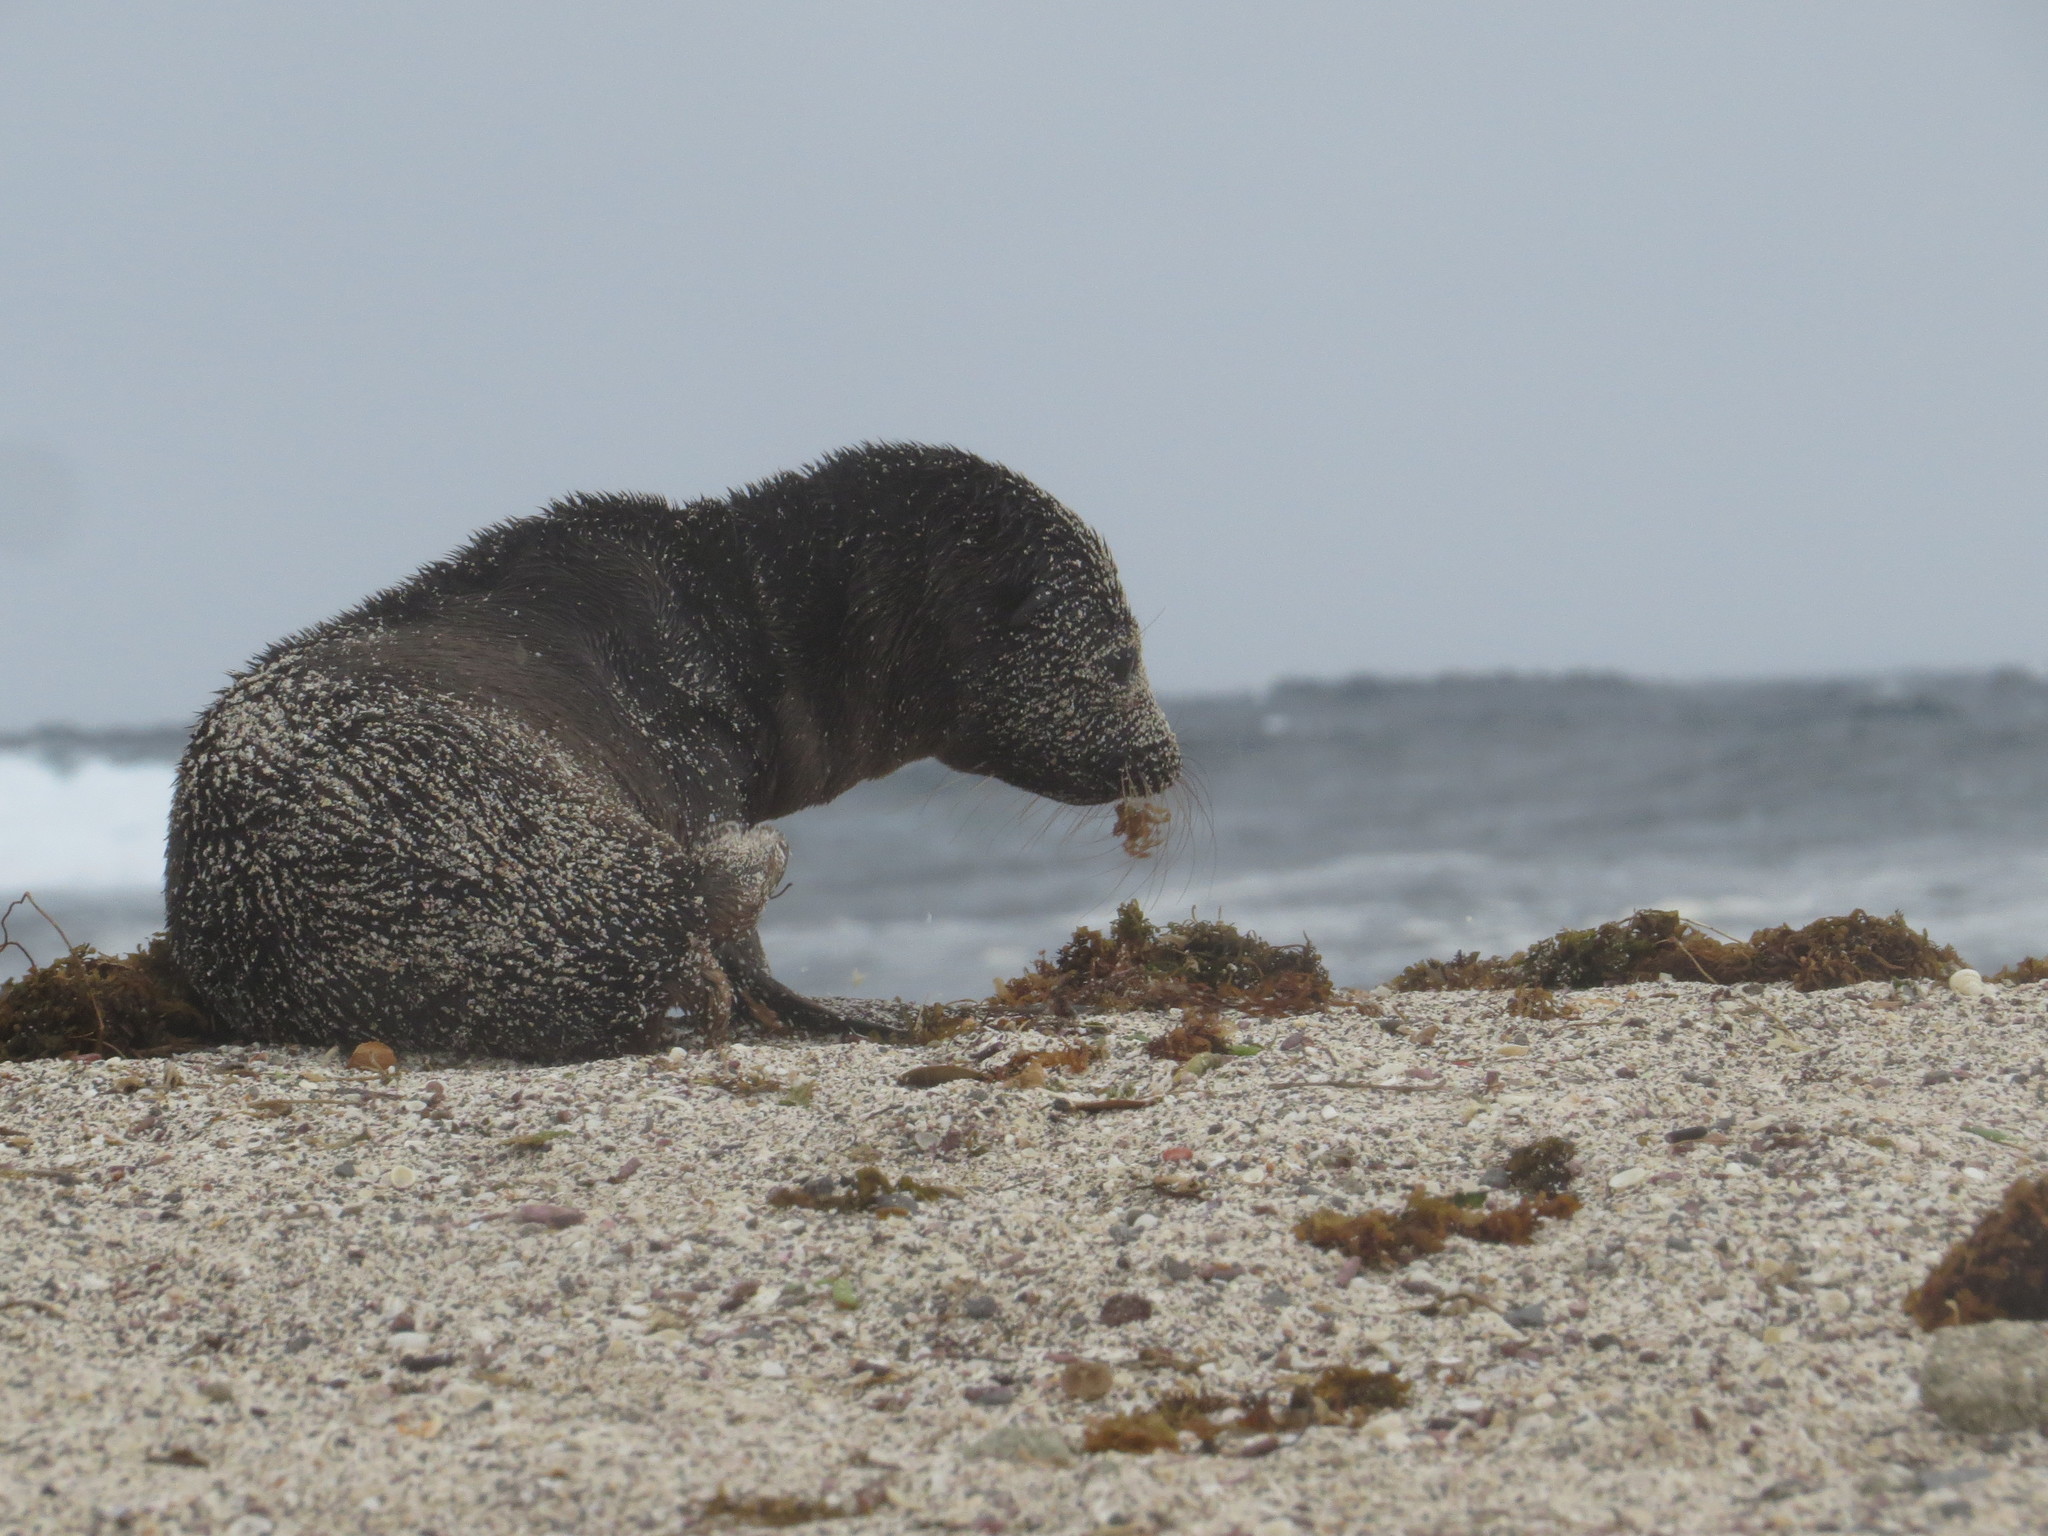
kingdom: Animalia
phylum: Chordata
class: Mammalia
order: Carnivora
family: Otariidae
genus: Zalophus
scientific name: Zalophus wollebaeki
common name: Galapagos sea lion
